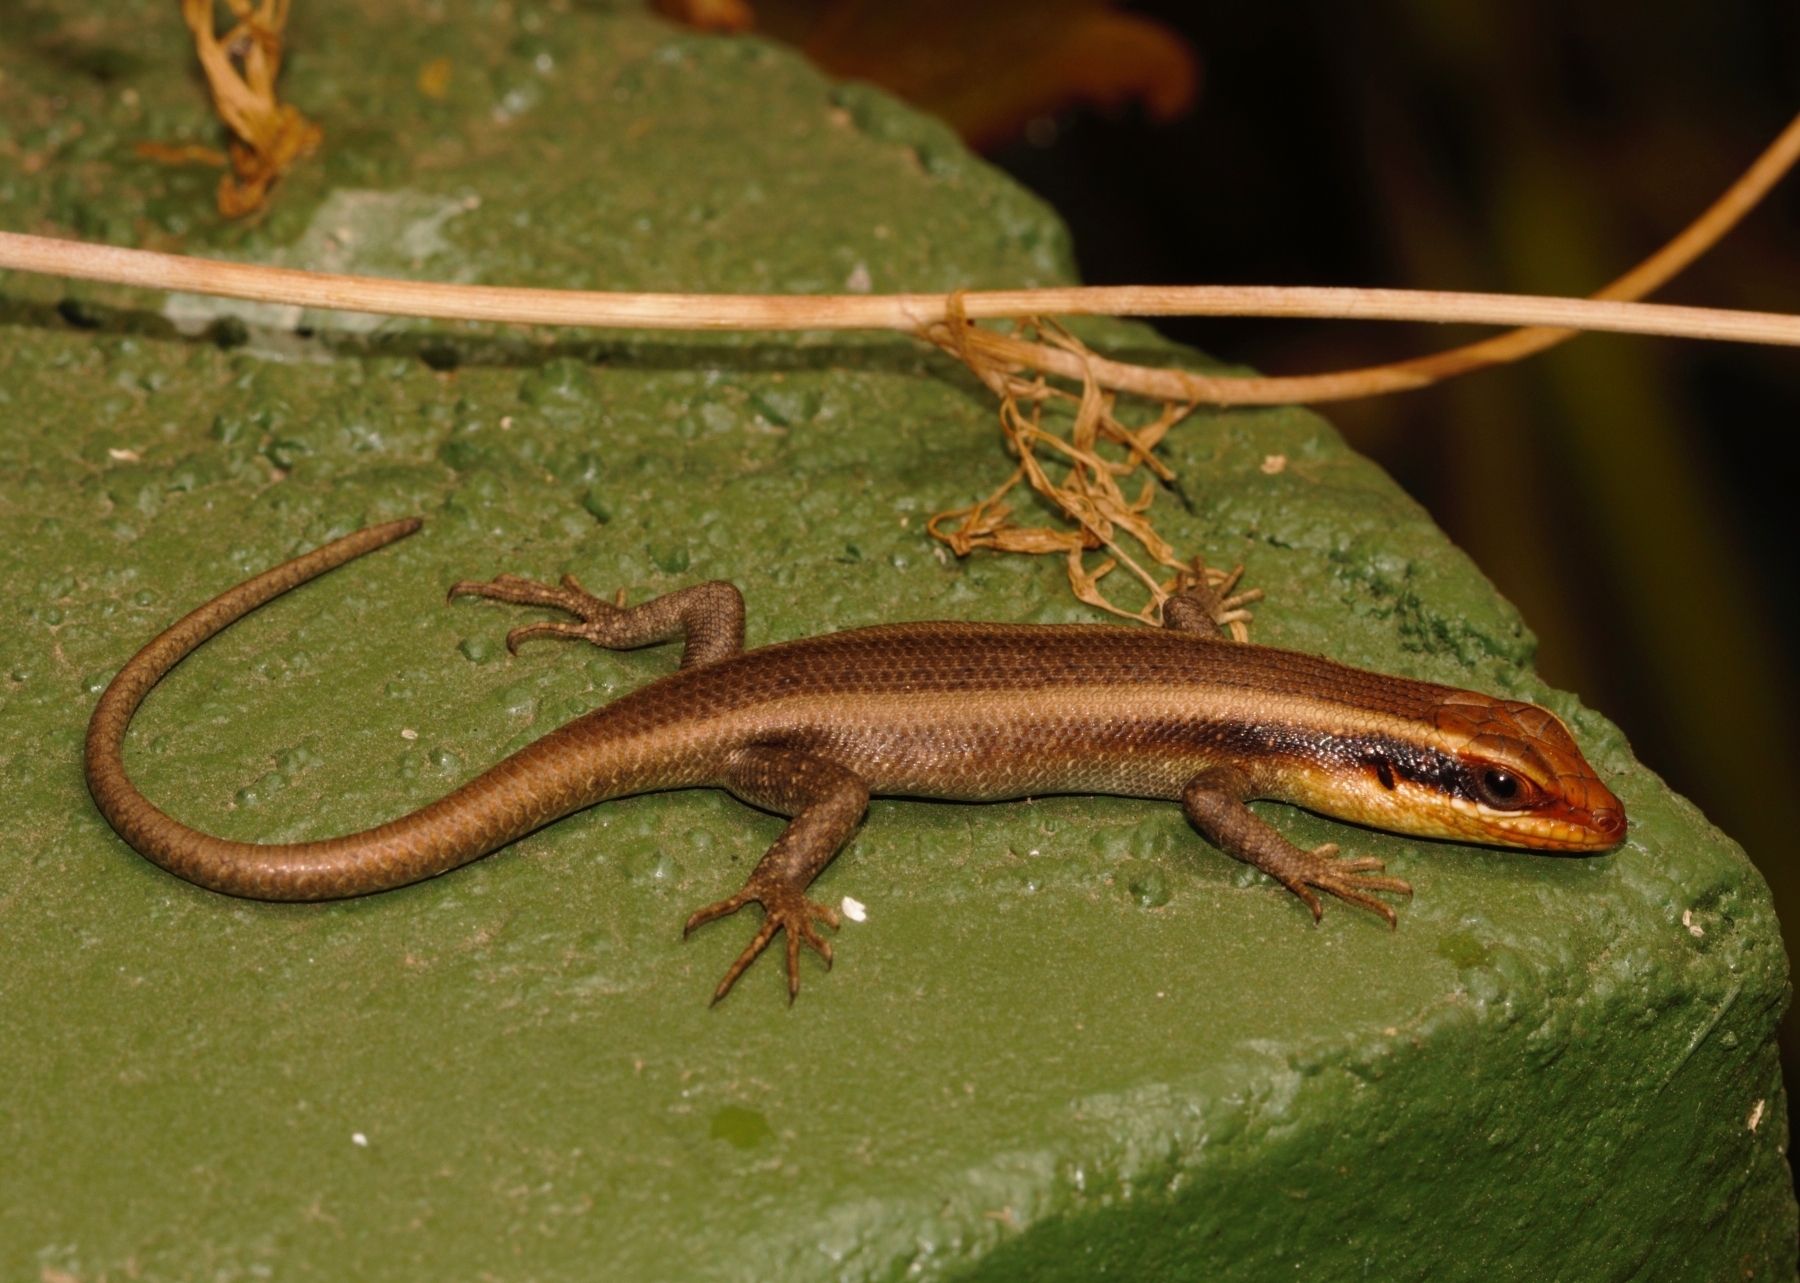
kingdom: Animalia
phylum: Chordata
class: Squamata
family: Scincidae
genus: Trachylepis
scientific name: Trachylepis wahlbergii
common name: Wahlberg’s striped skink
